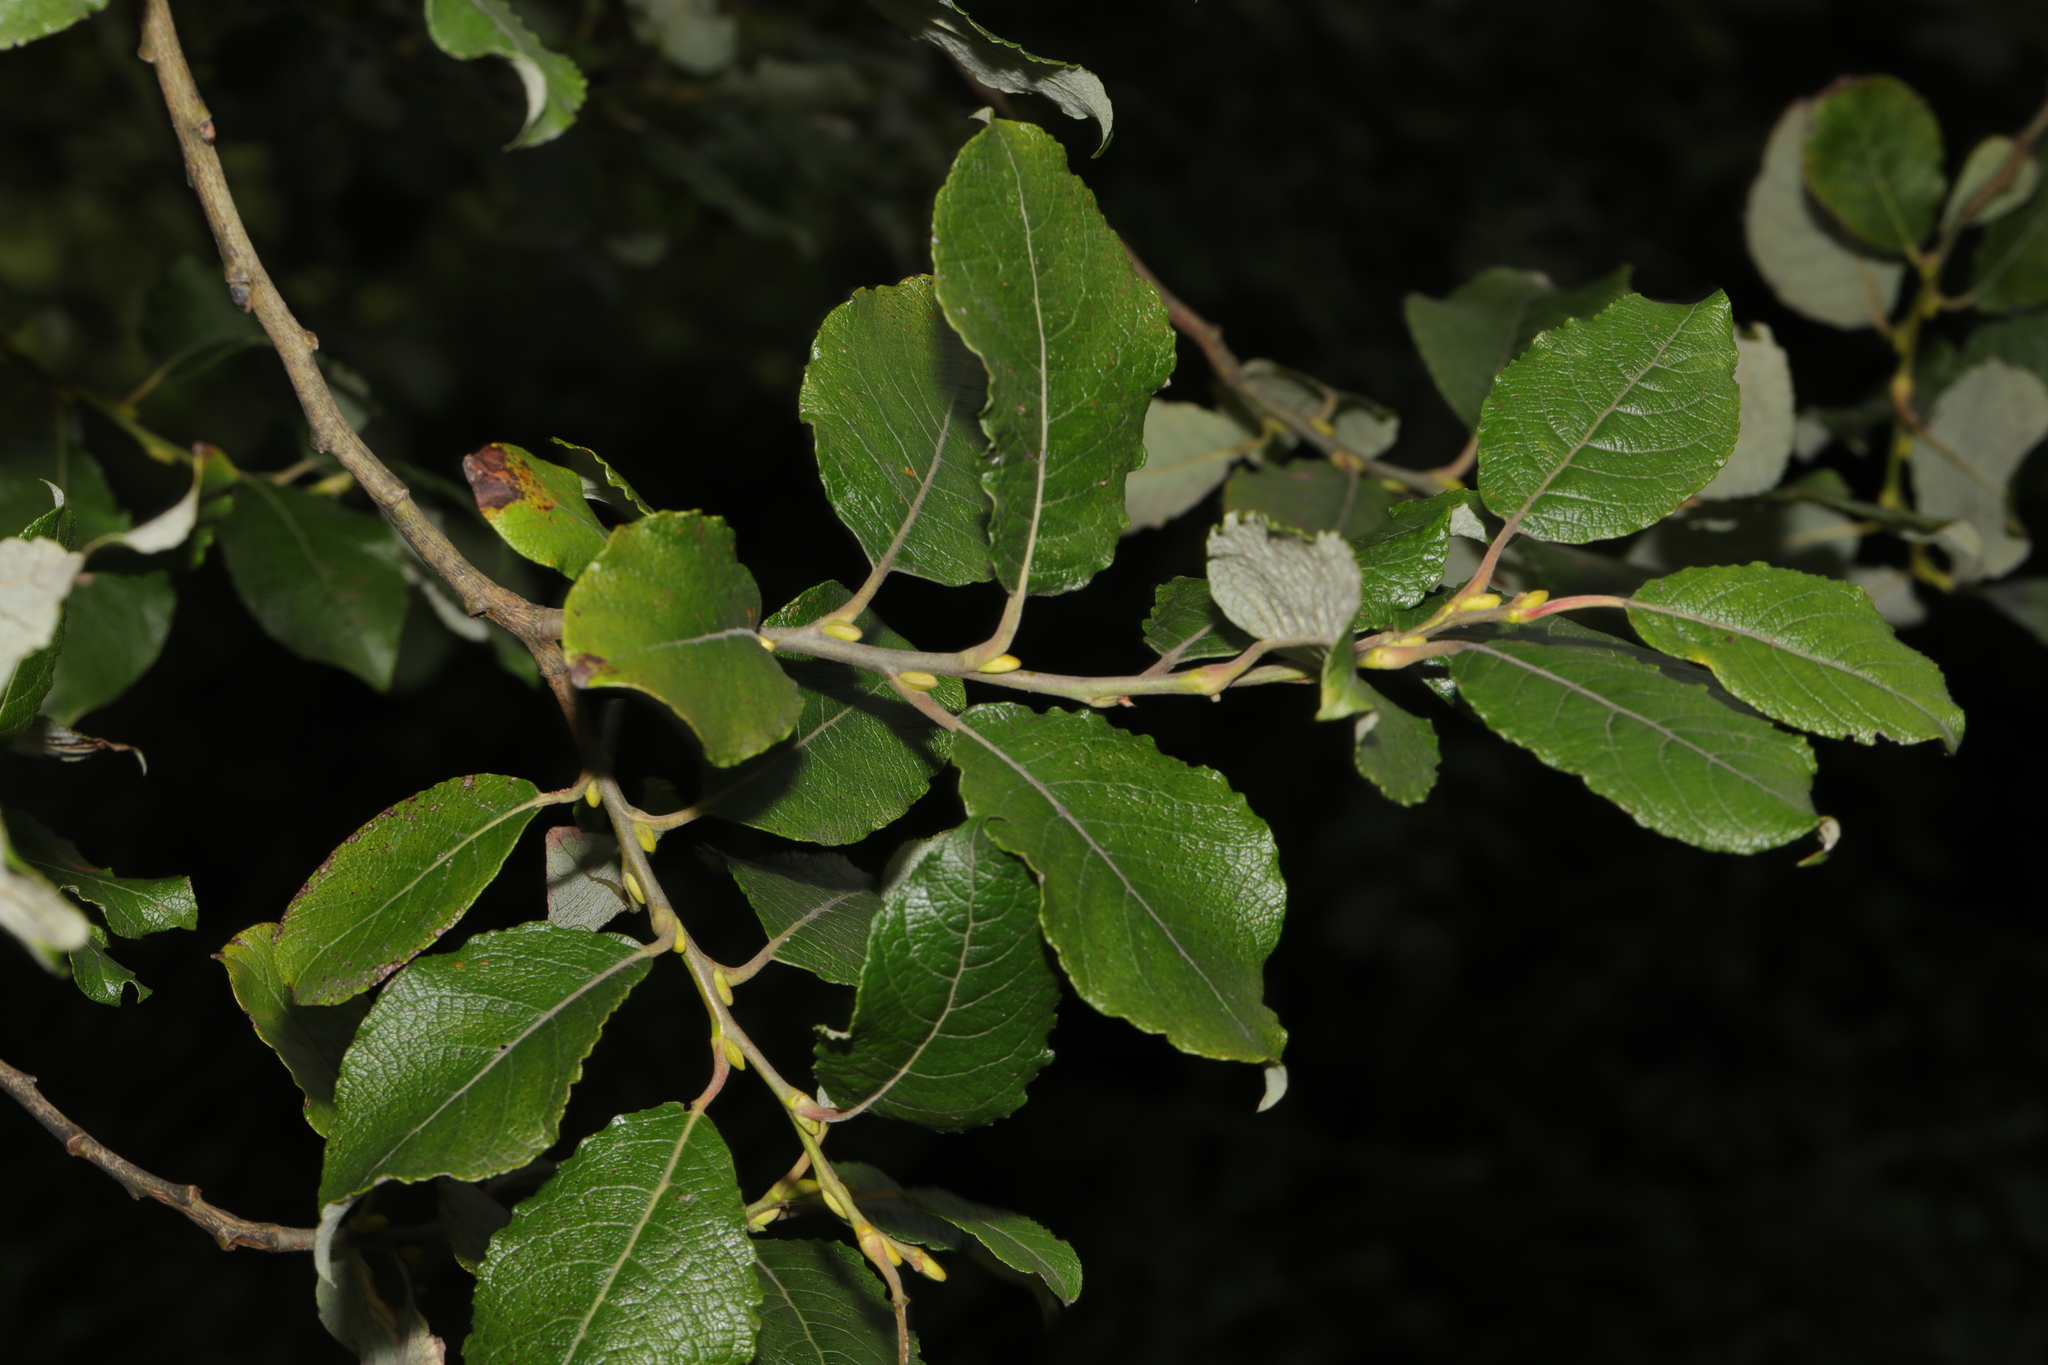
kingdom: Plantae
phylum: Tracheophyta
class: Magnoliopsida
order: Malpighiales
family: Salicaceae
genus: Salix
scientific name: Salix caprea
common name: Goat willow
